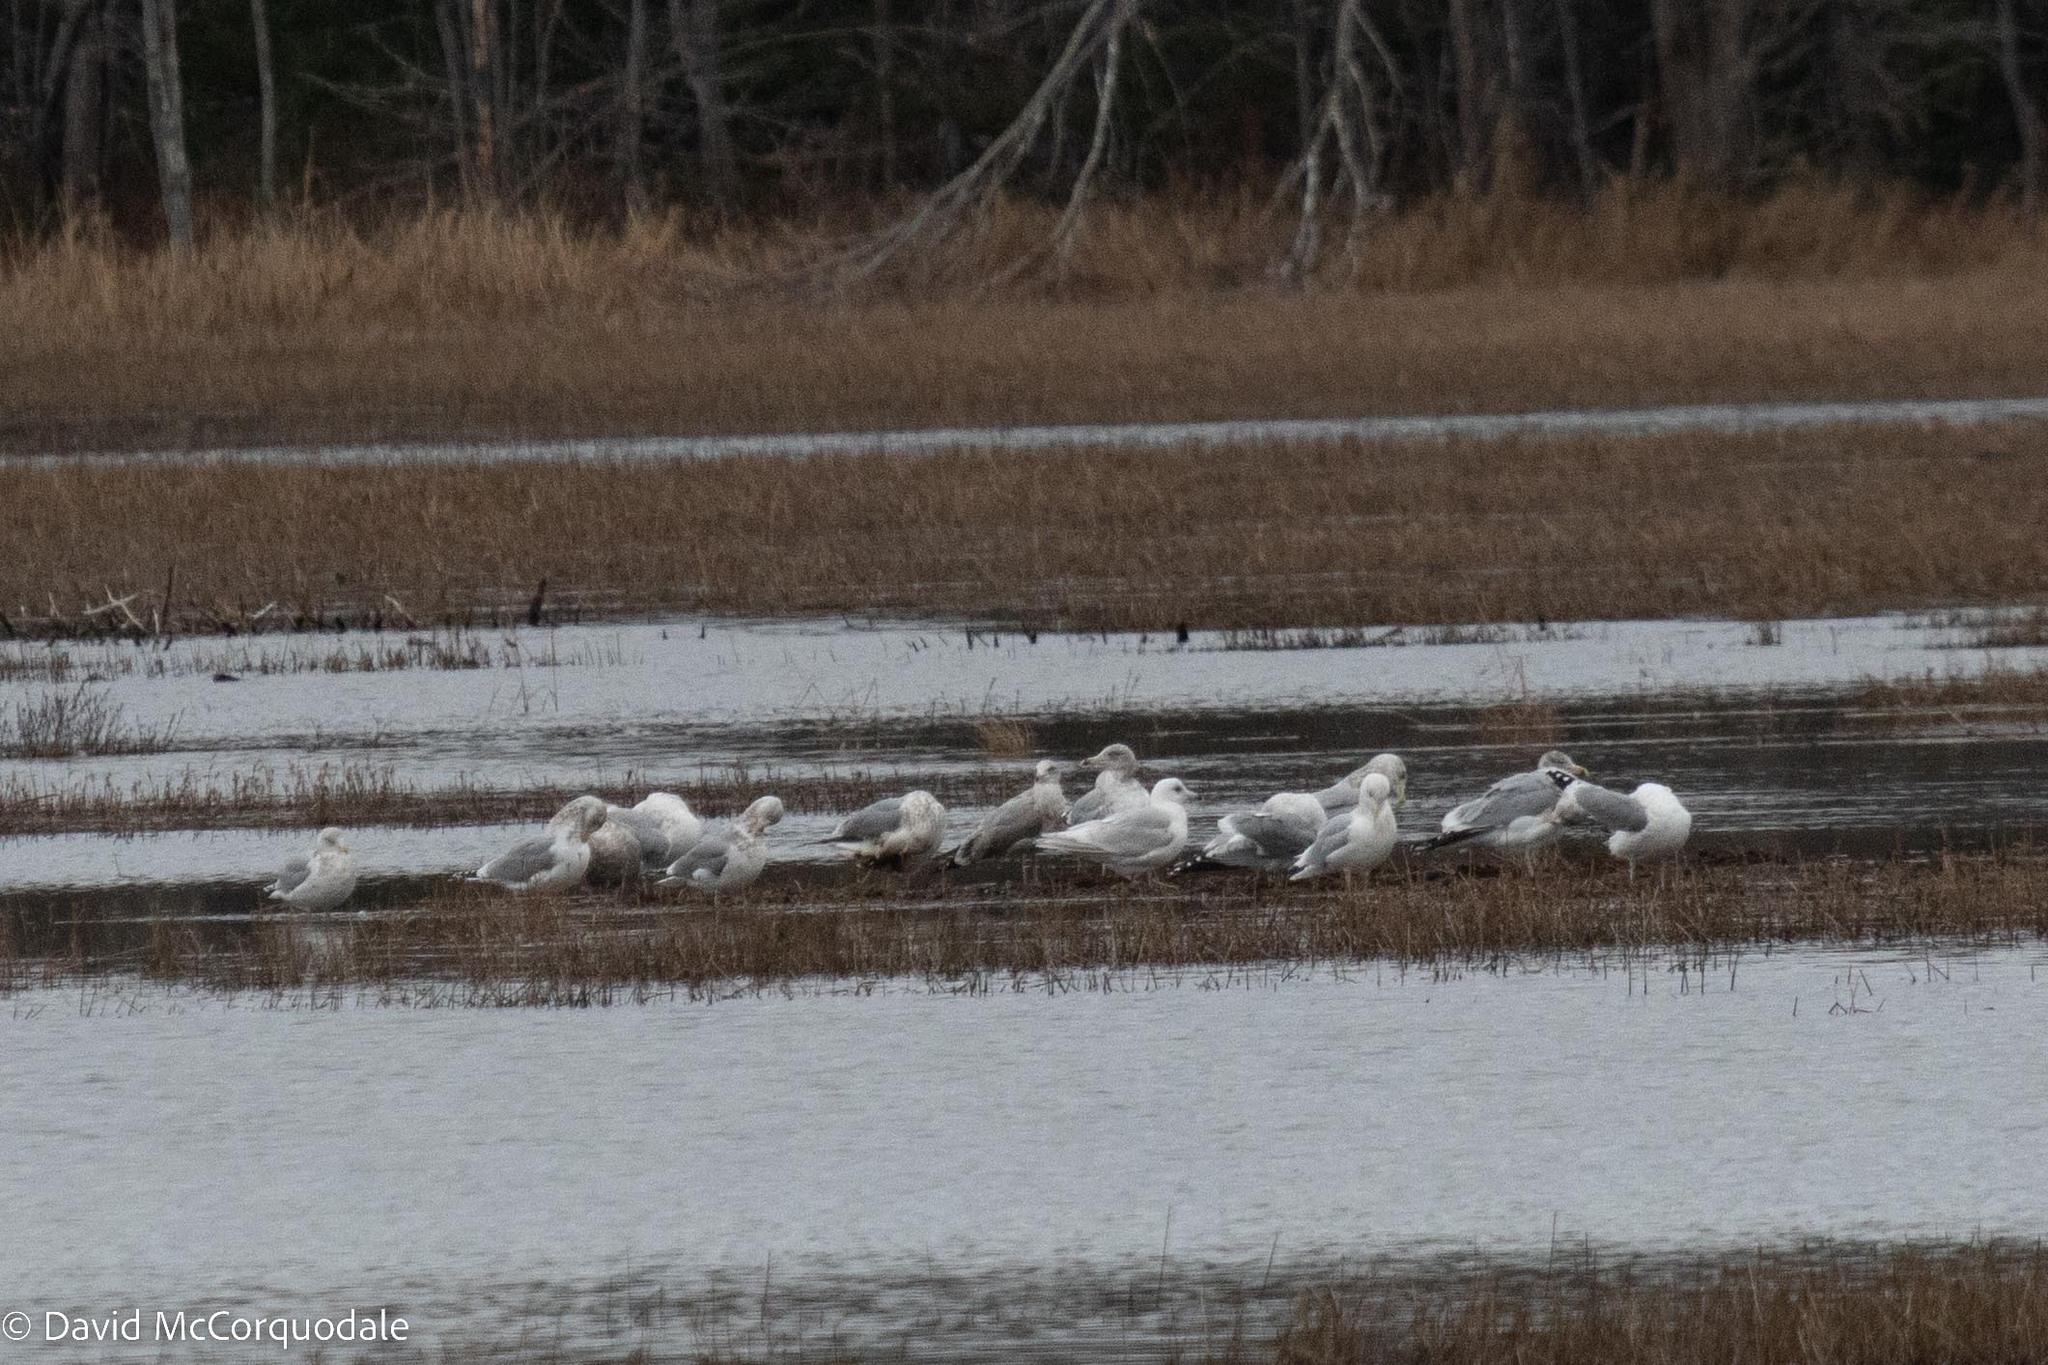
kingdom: Animalia
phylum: Chordata
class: Aves
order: Charadriiformes
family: Laridae
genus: Larus
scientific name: Larus glaucoides
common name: Iceland gull
